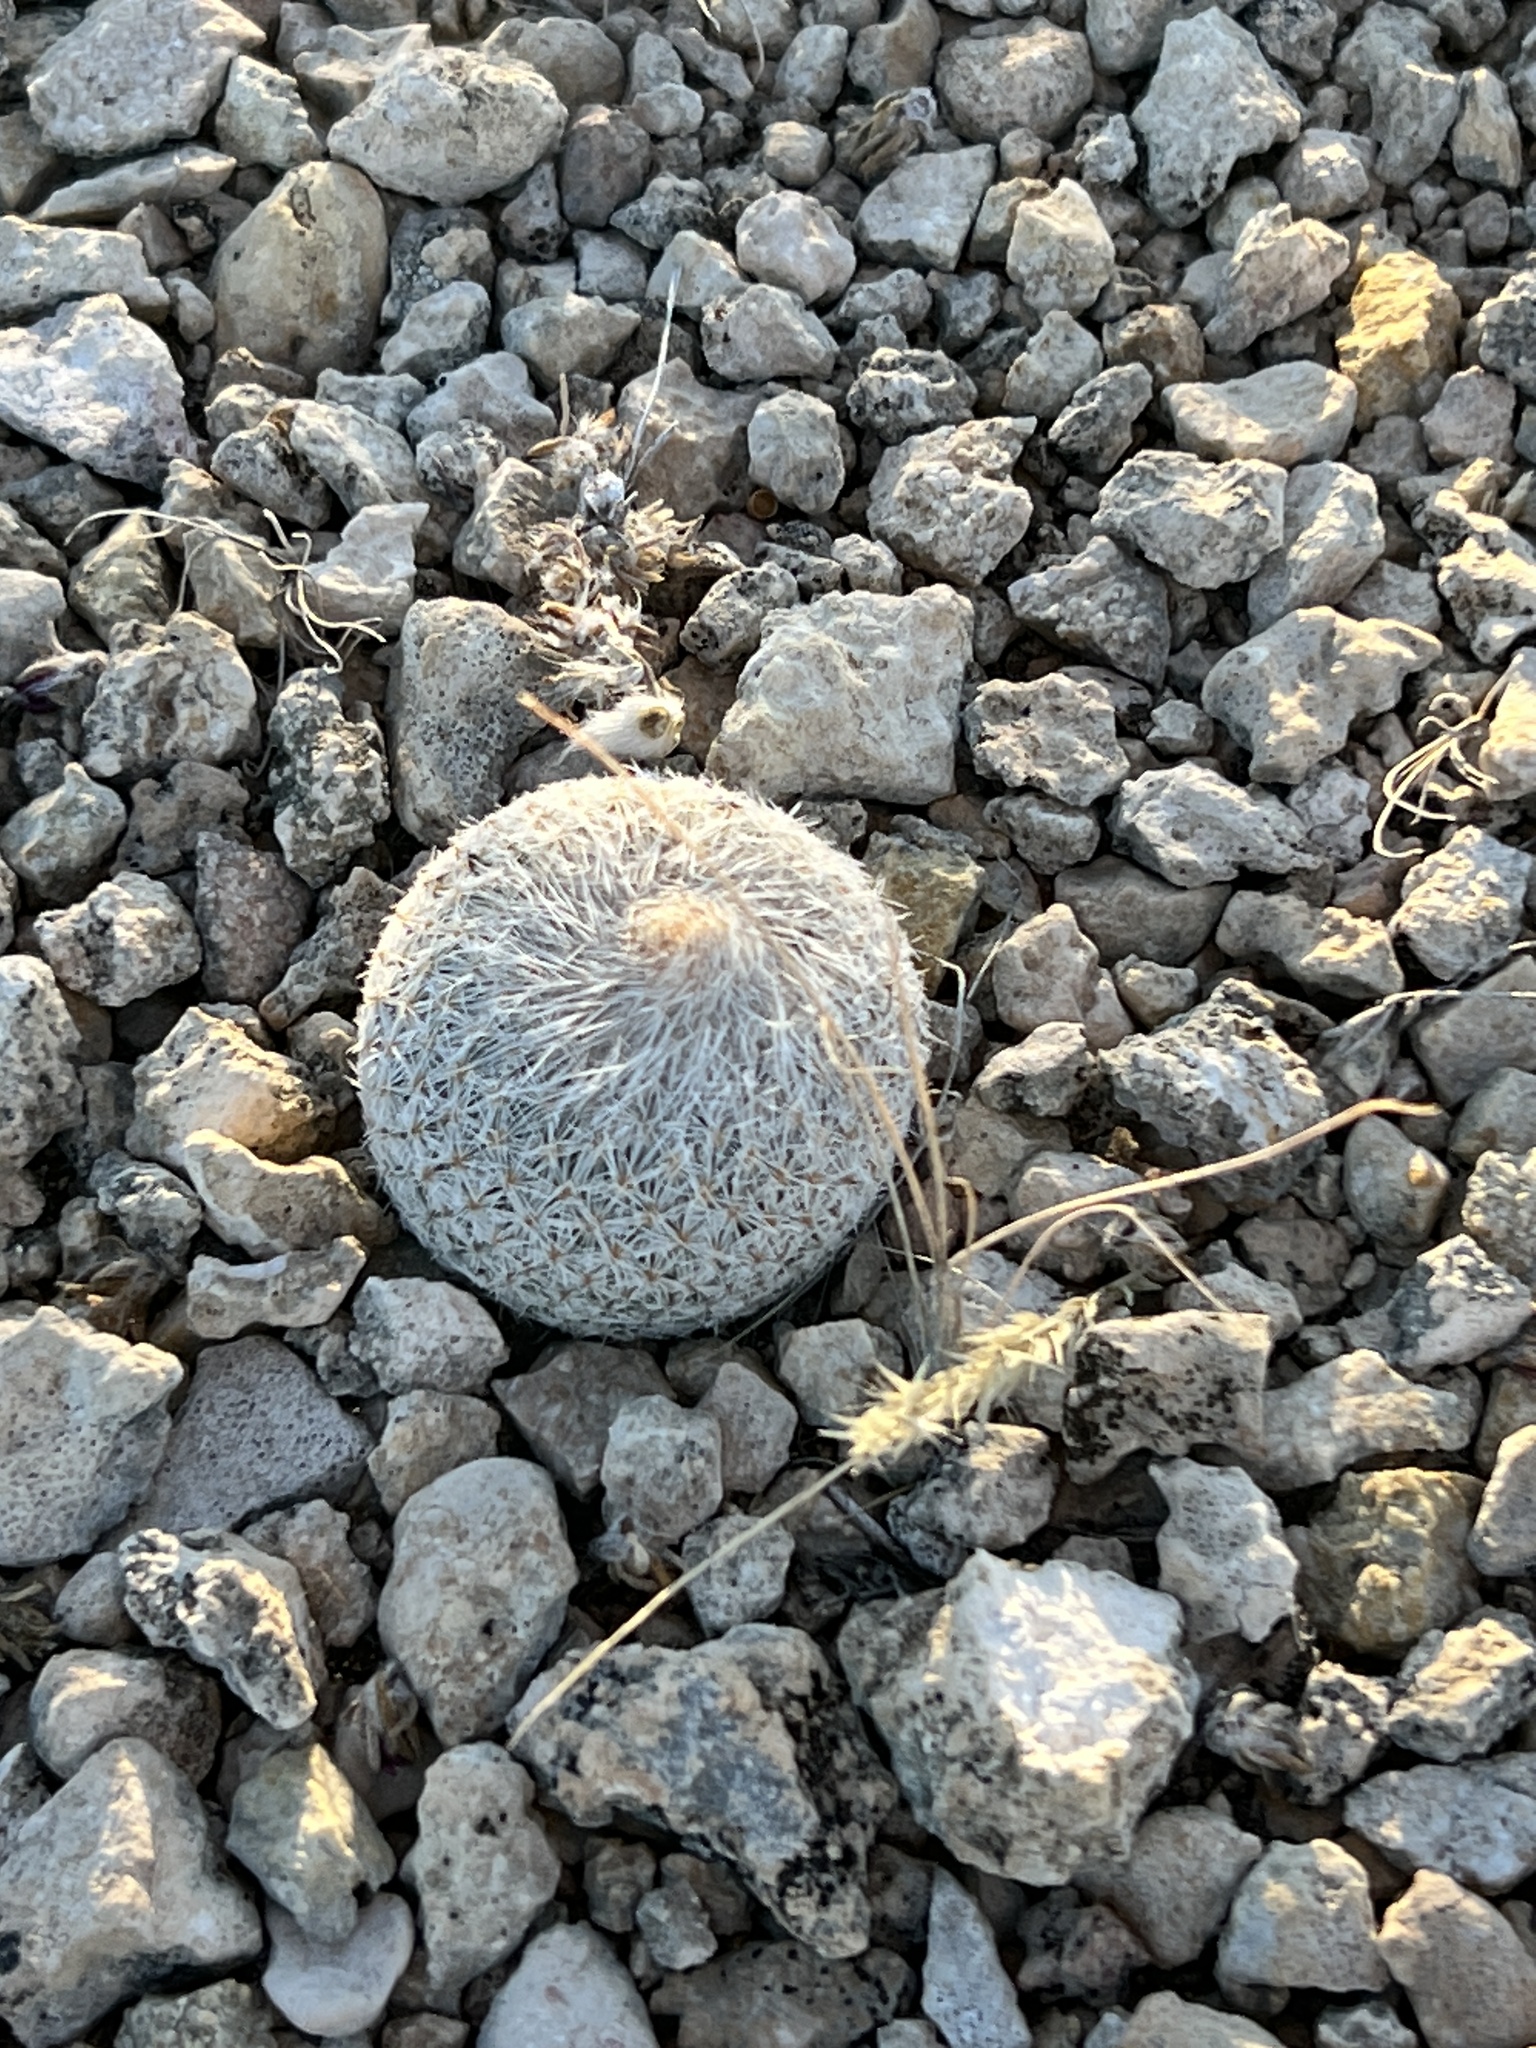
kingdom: Plantae
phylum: Tracheophyta
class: Magnoliopsida
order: Caryophyllales
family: Cactaceae
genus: Epithelantha
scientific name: Epithelantha micromeris
